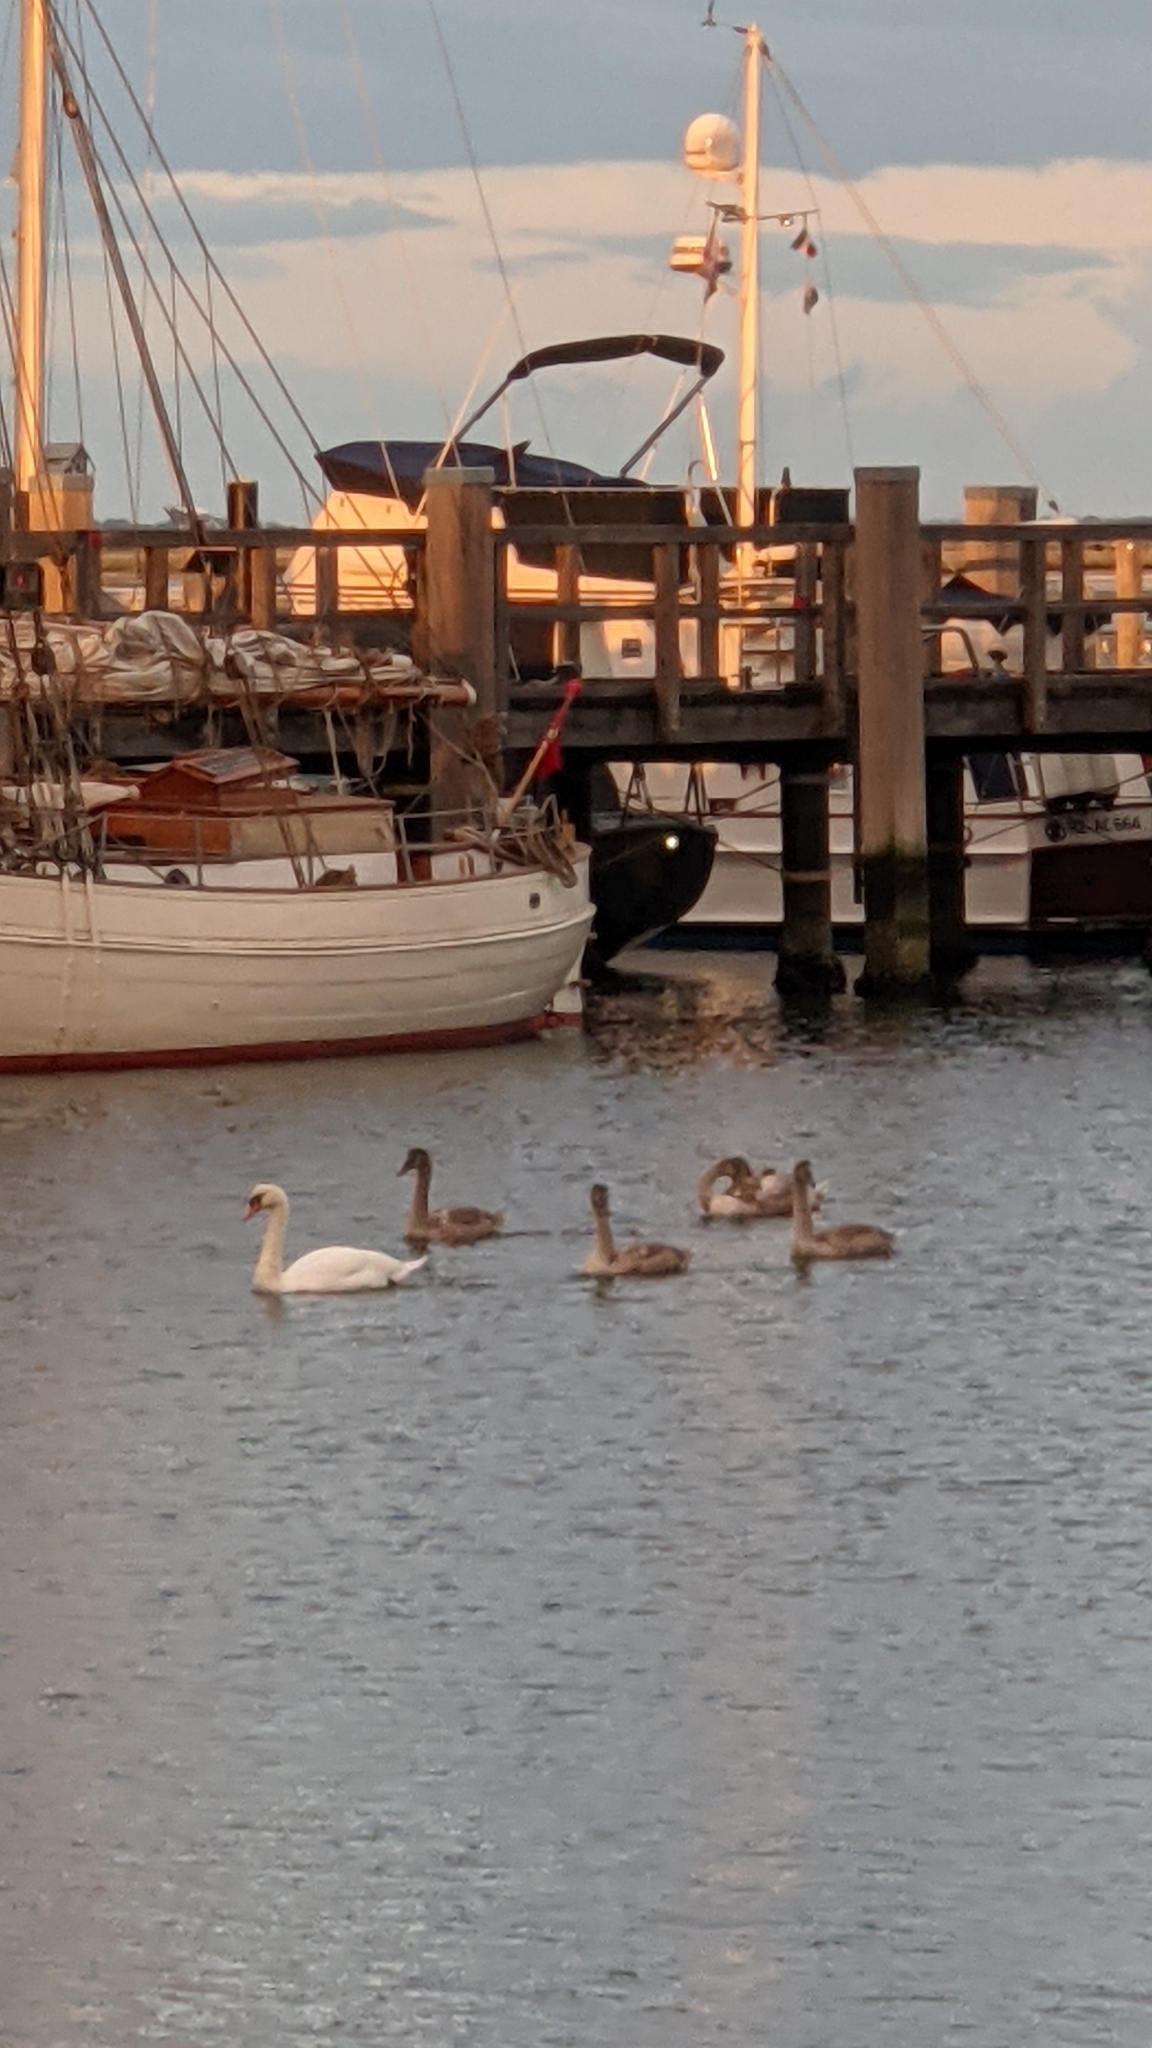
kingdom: Animalia
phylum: Chordata
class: Aves
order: Anseriformes
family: Anatidae
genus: Cygnus
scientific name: Cygnus olor
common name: Mute swan
